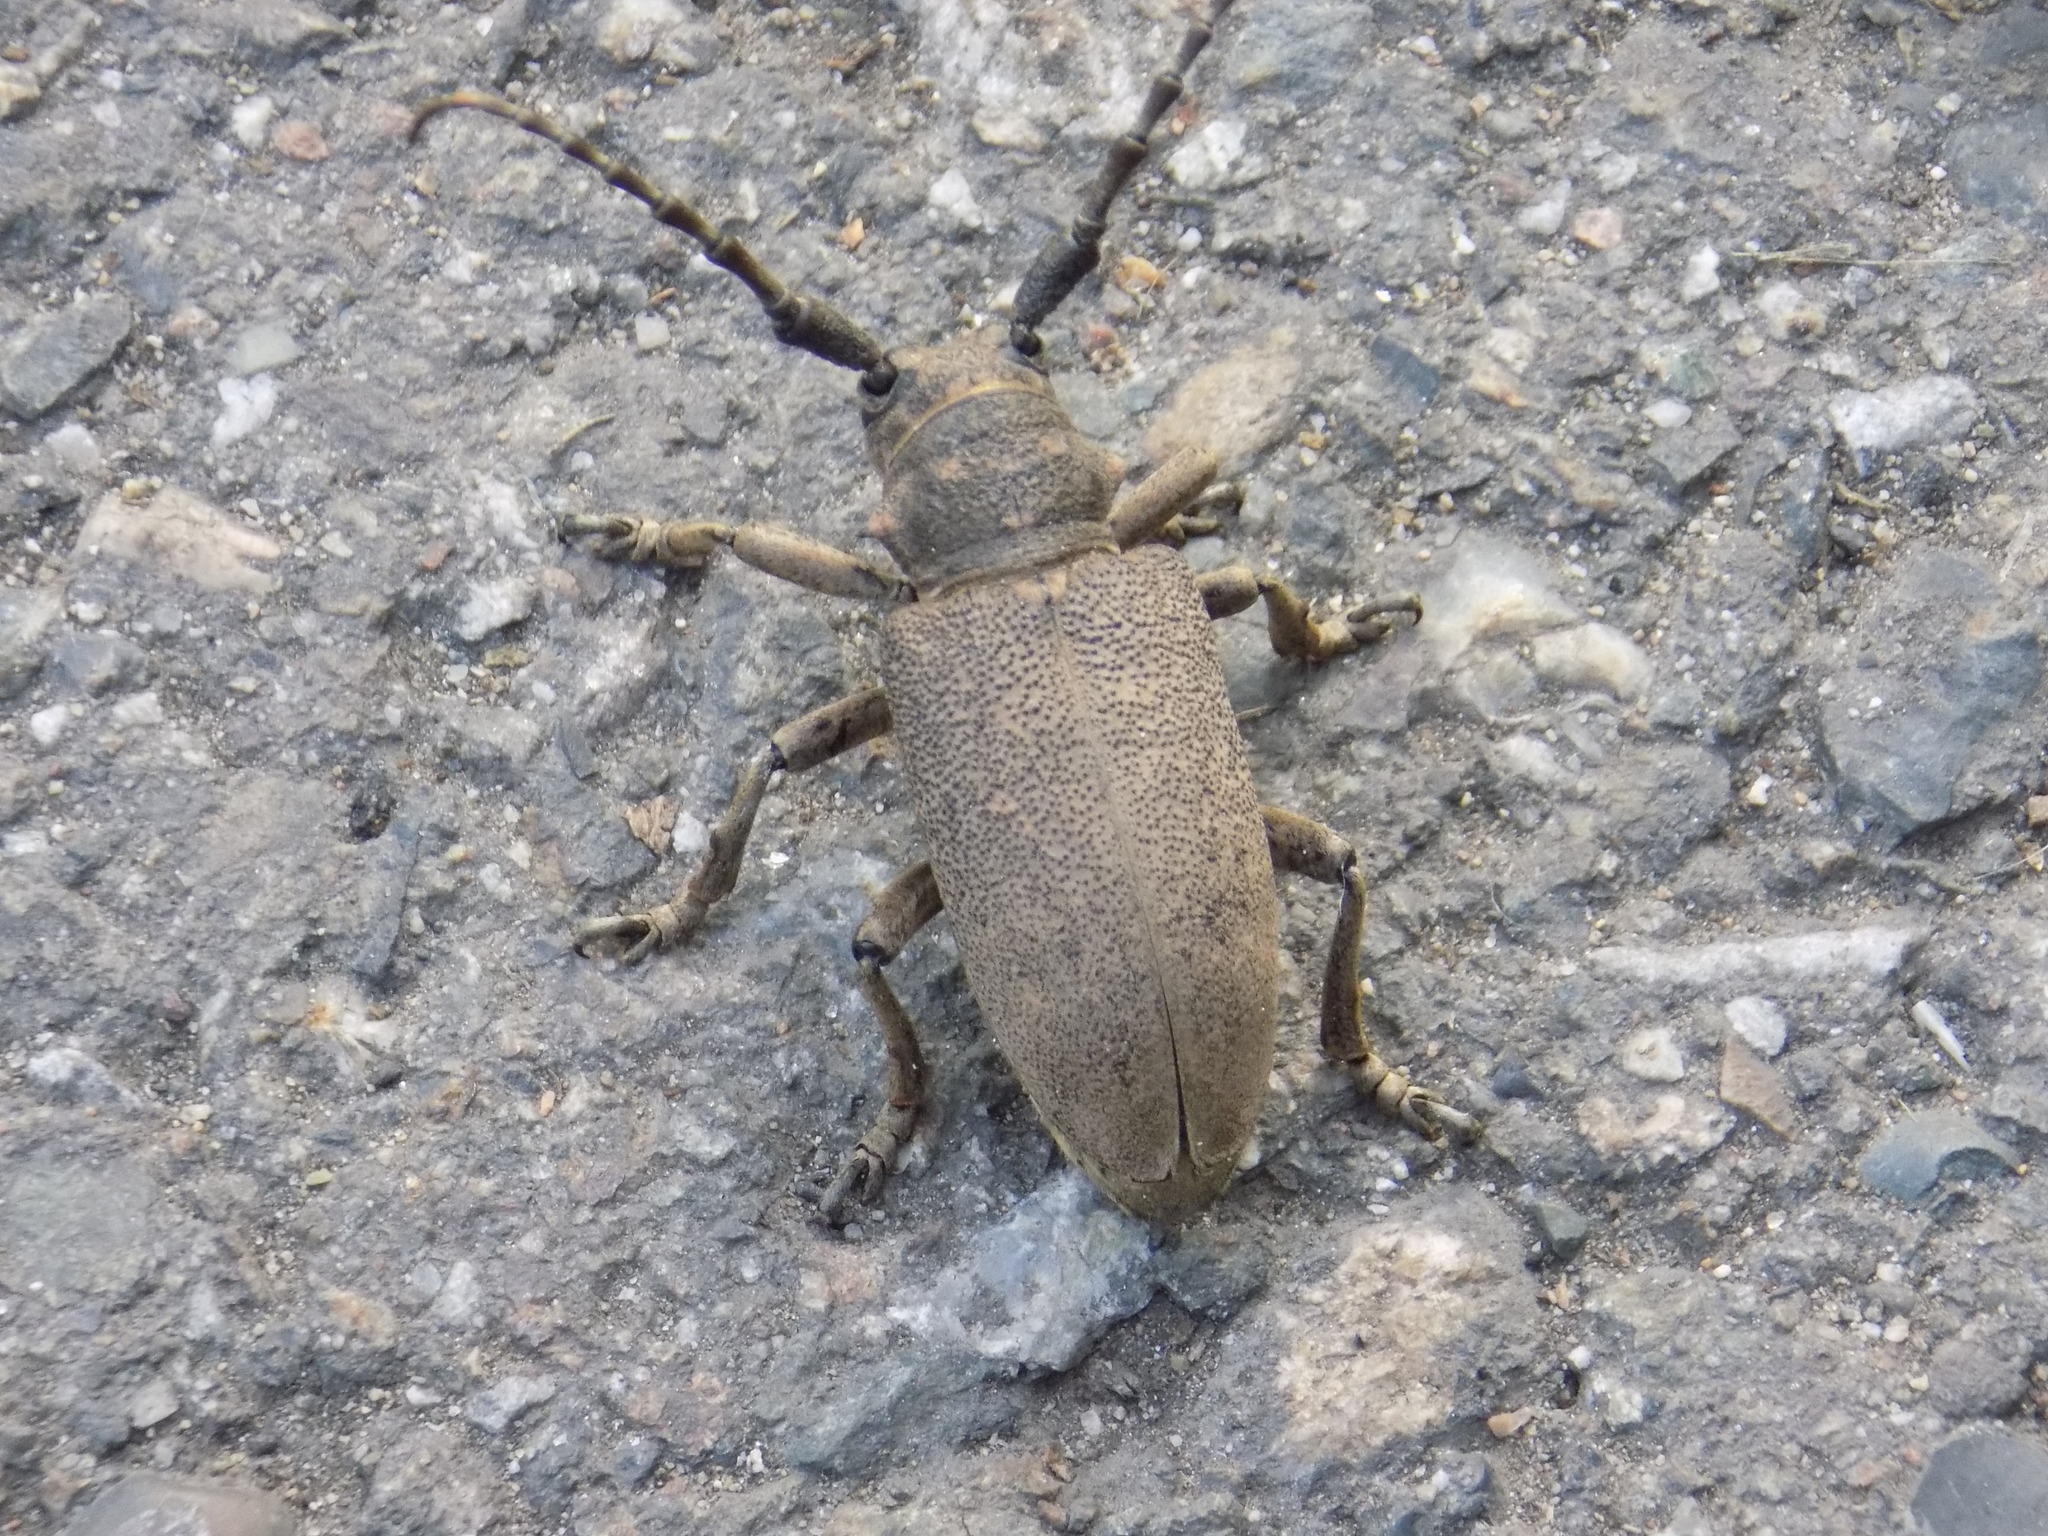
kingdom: Animalia
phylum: Arthropoda
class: Insecta
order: Coleoptera
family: Cerambycidae
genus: Lamia
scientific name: Lamia textor
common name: Weaver beetle
